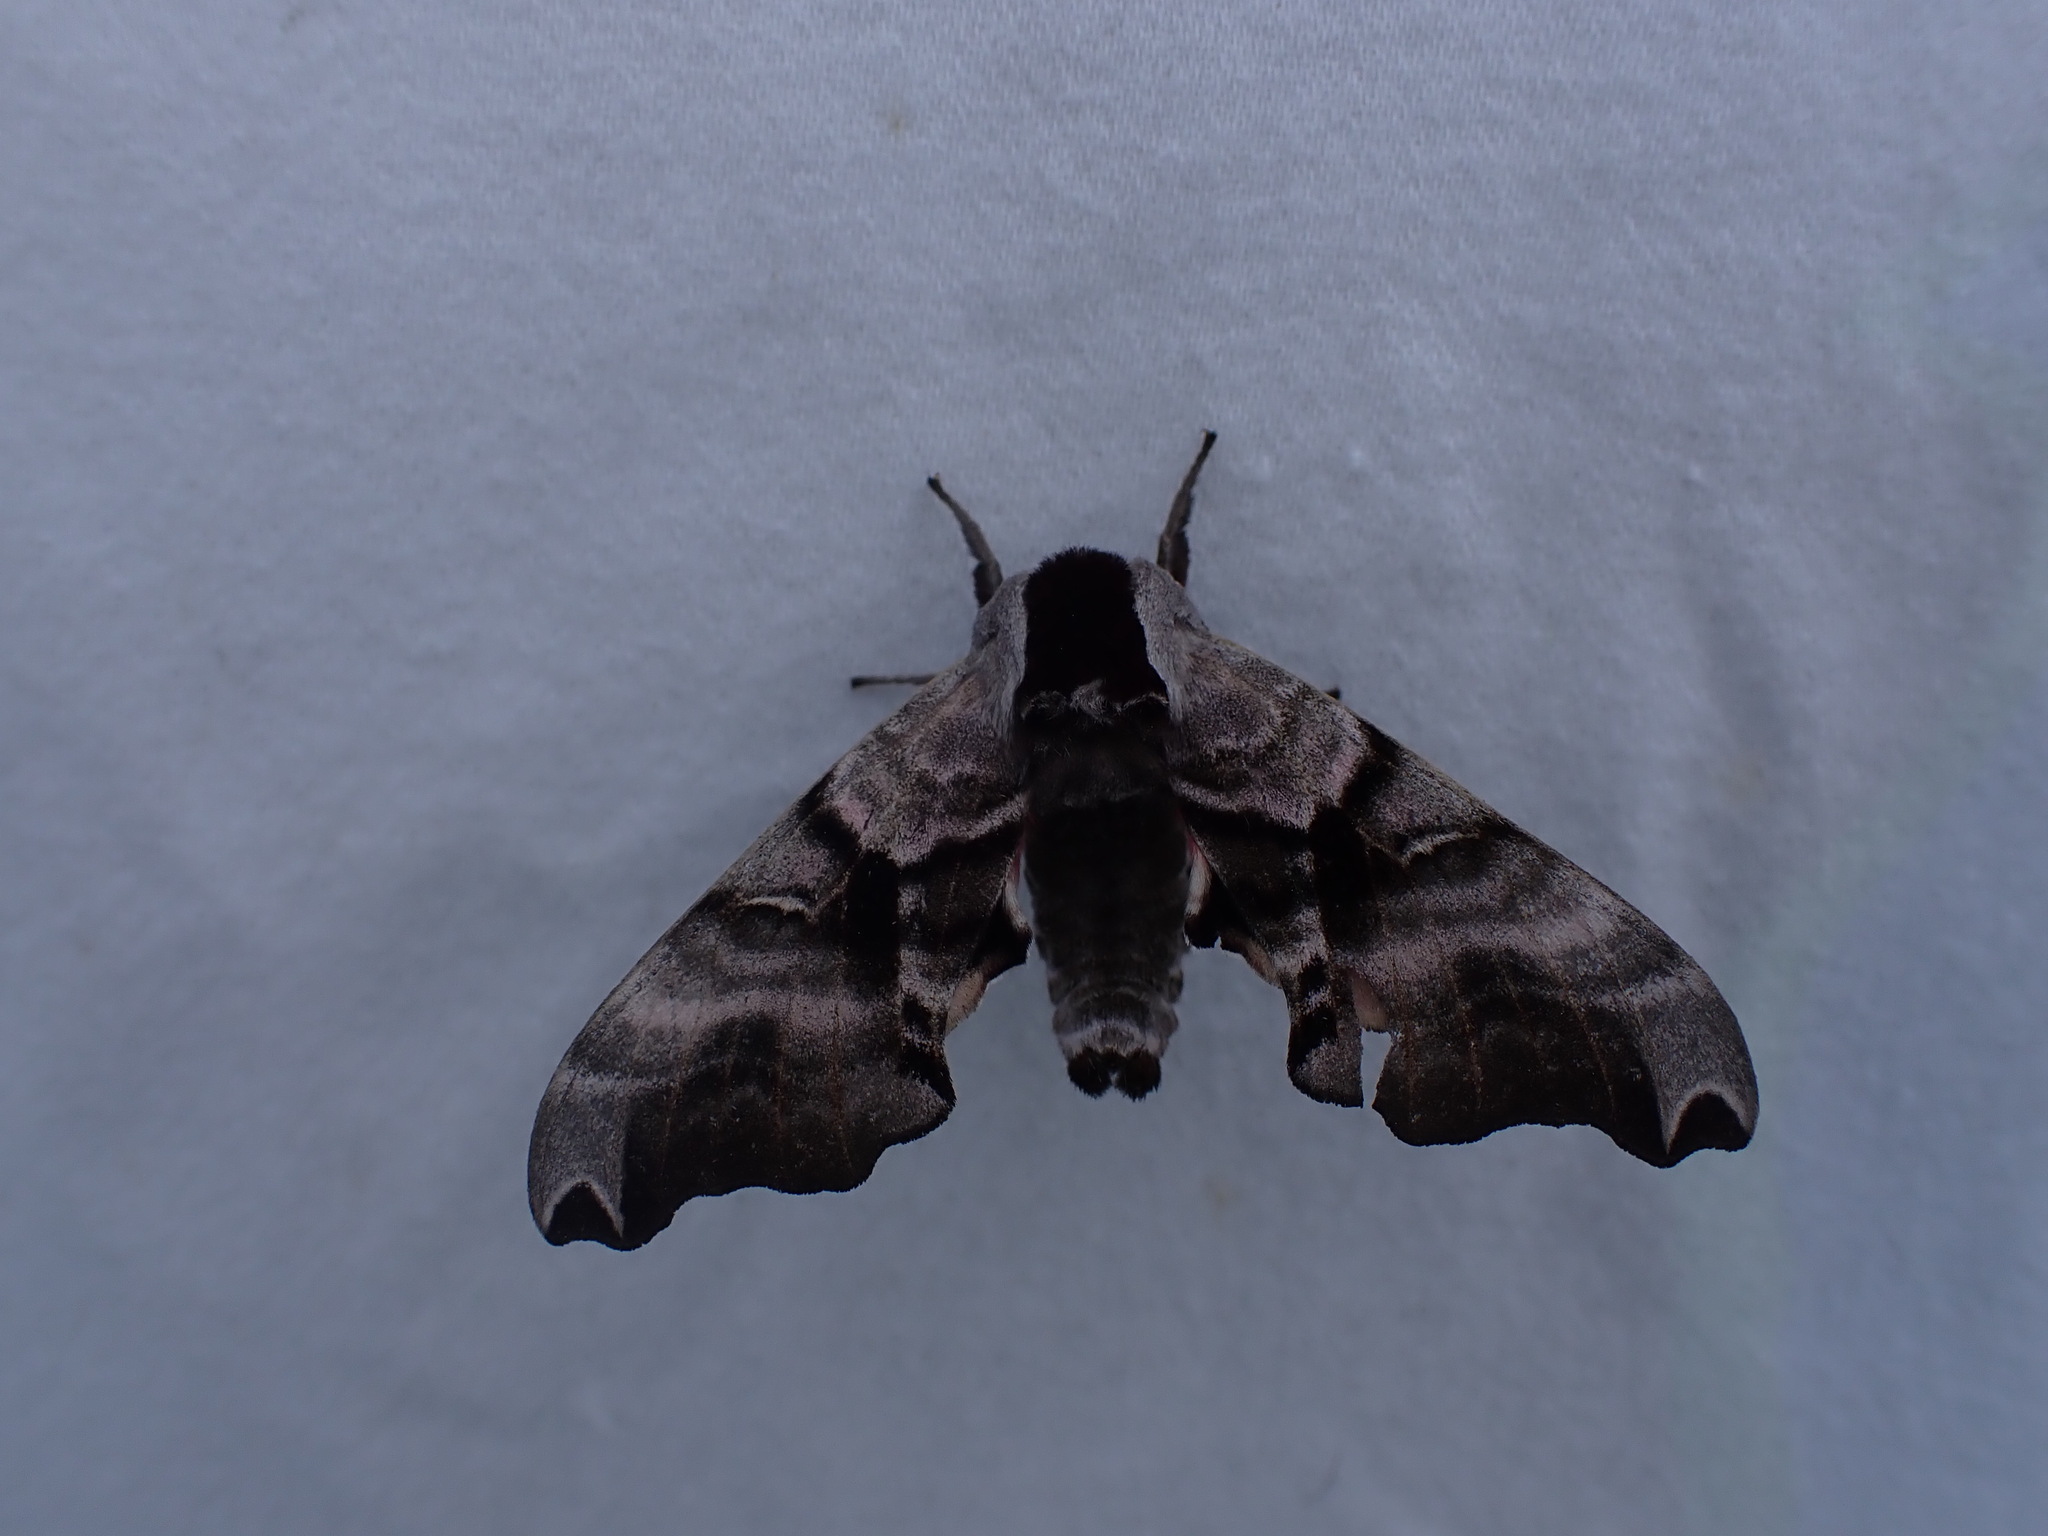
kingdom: Animalia
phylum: Arthropoda
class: Insecta
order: Lepidoptera
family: Sphingidae
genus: Smerinthus
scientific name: Smerinthus jamaicensis
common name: Twin spotted sphinx
